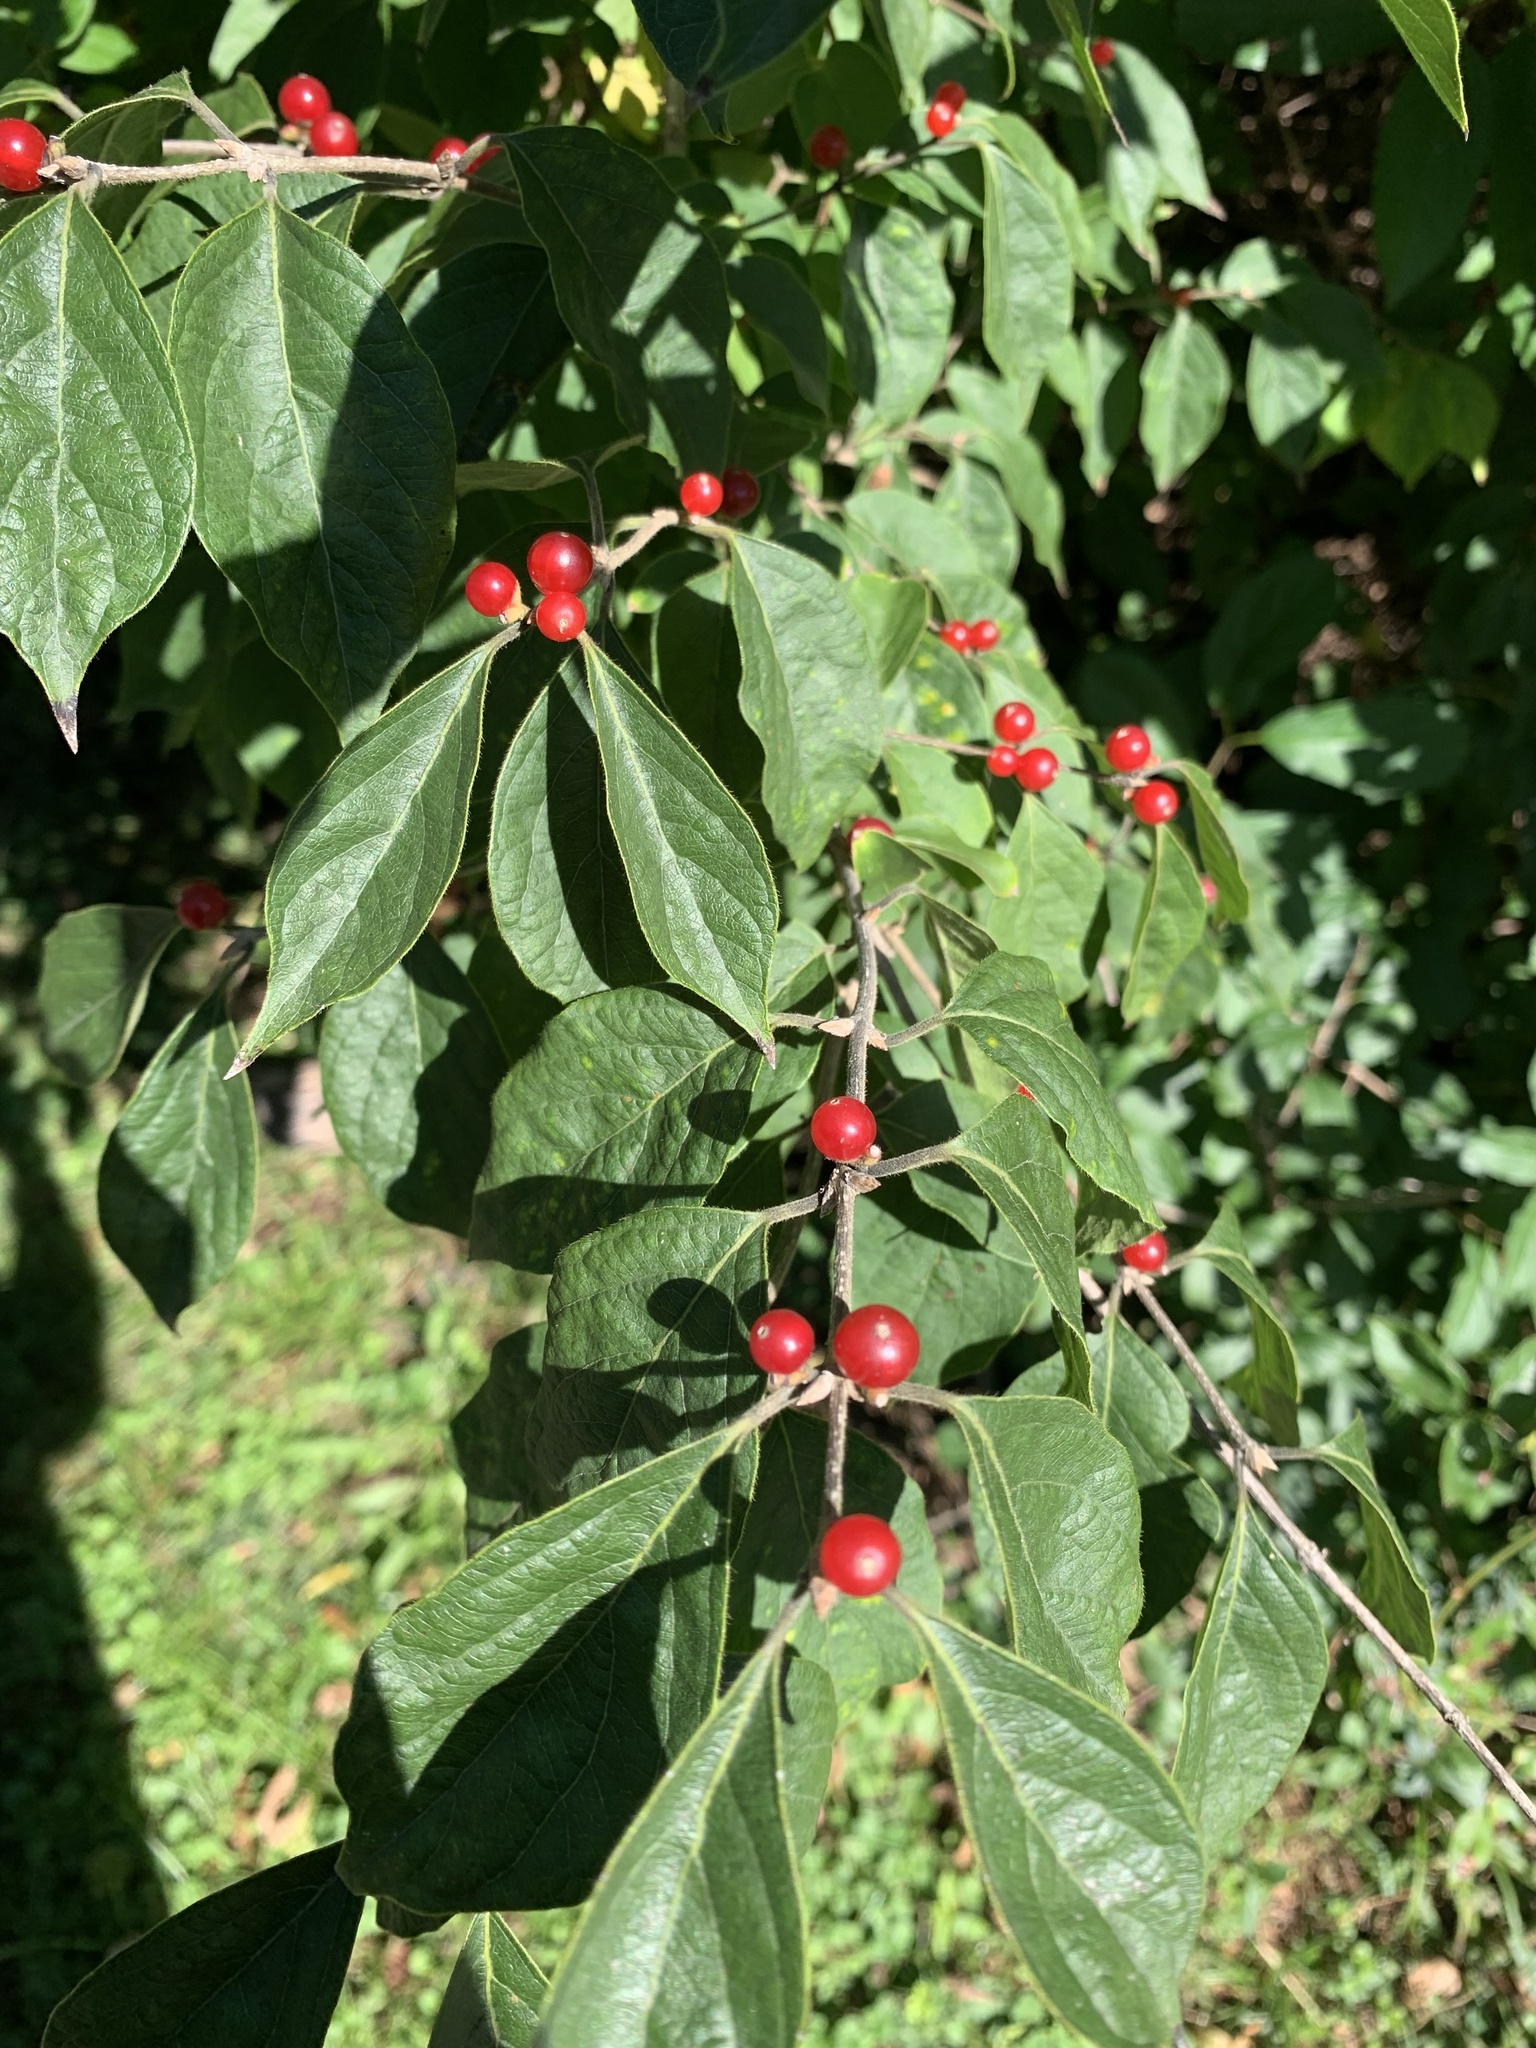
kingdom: Plantae
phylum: Tracheophyta
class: Magnoliopsida
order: Dipsacales
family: Caprifoliaceae
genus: Lonicera
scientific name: Lonicera maackii
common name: Amur honeysuckle
